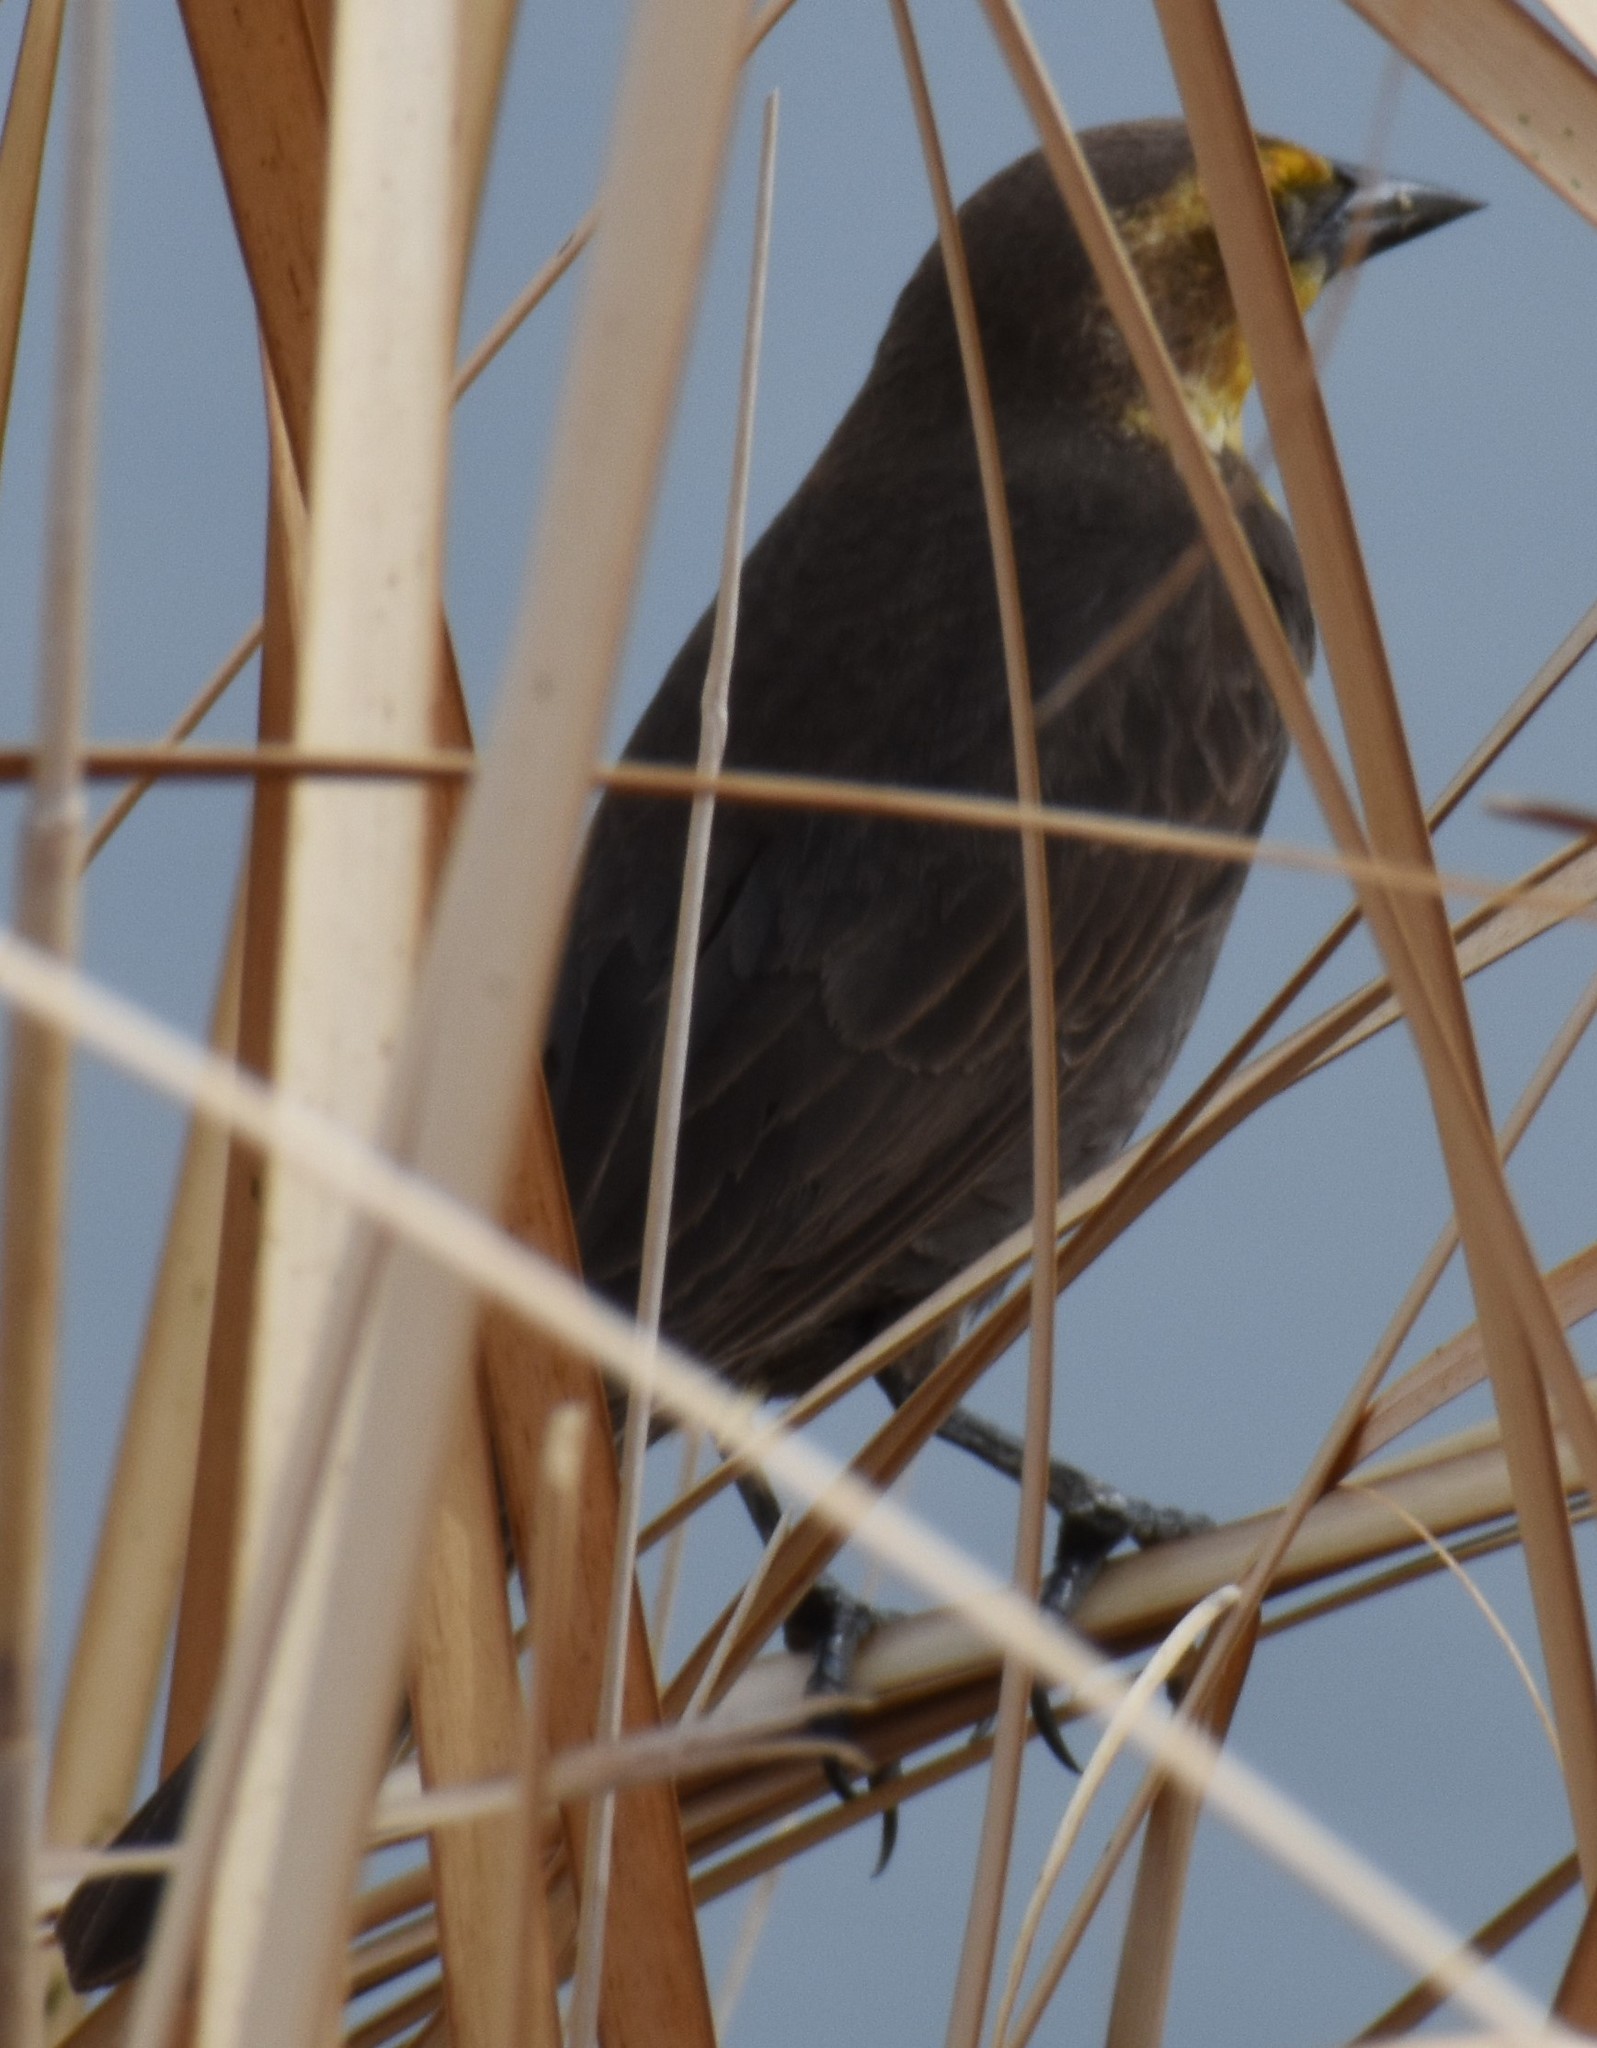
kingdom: Animalia
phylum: Chordata
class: Aves
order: Passeriformes
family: Icteridae
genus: Xanthocephalus
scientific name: Xanthocephalus xanthocephalus
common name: Yellow-headed blackbird
